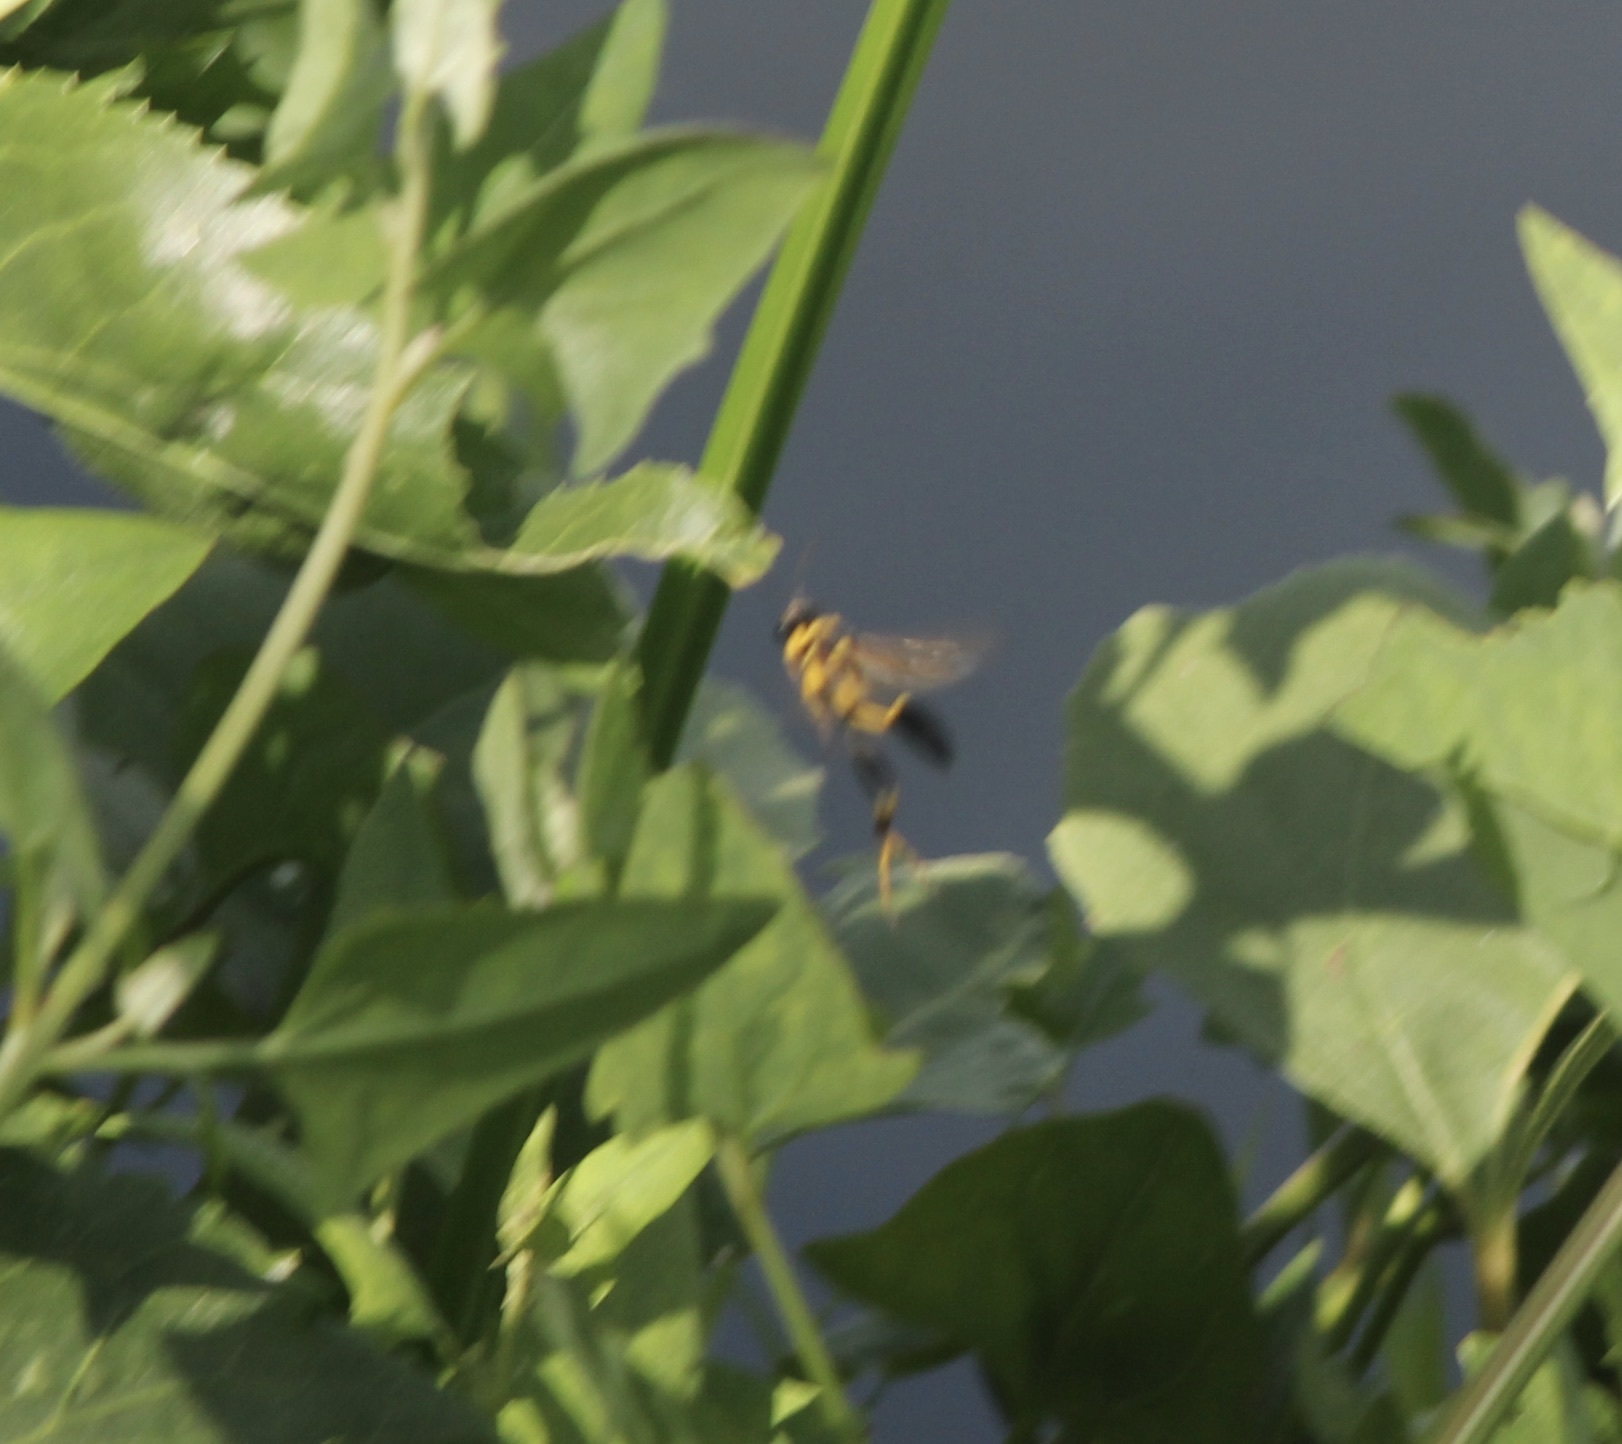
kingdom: Animalia
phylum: Arthropoda
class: Insecta
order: Hymenoptera
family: Sphecidae
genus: Sceliphron
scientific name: Sceliphron caementarium
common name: Mud dauber
